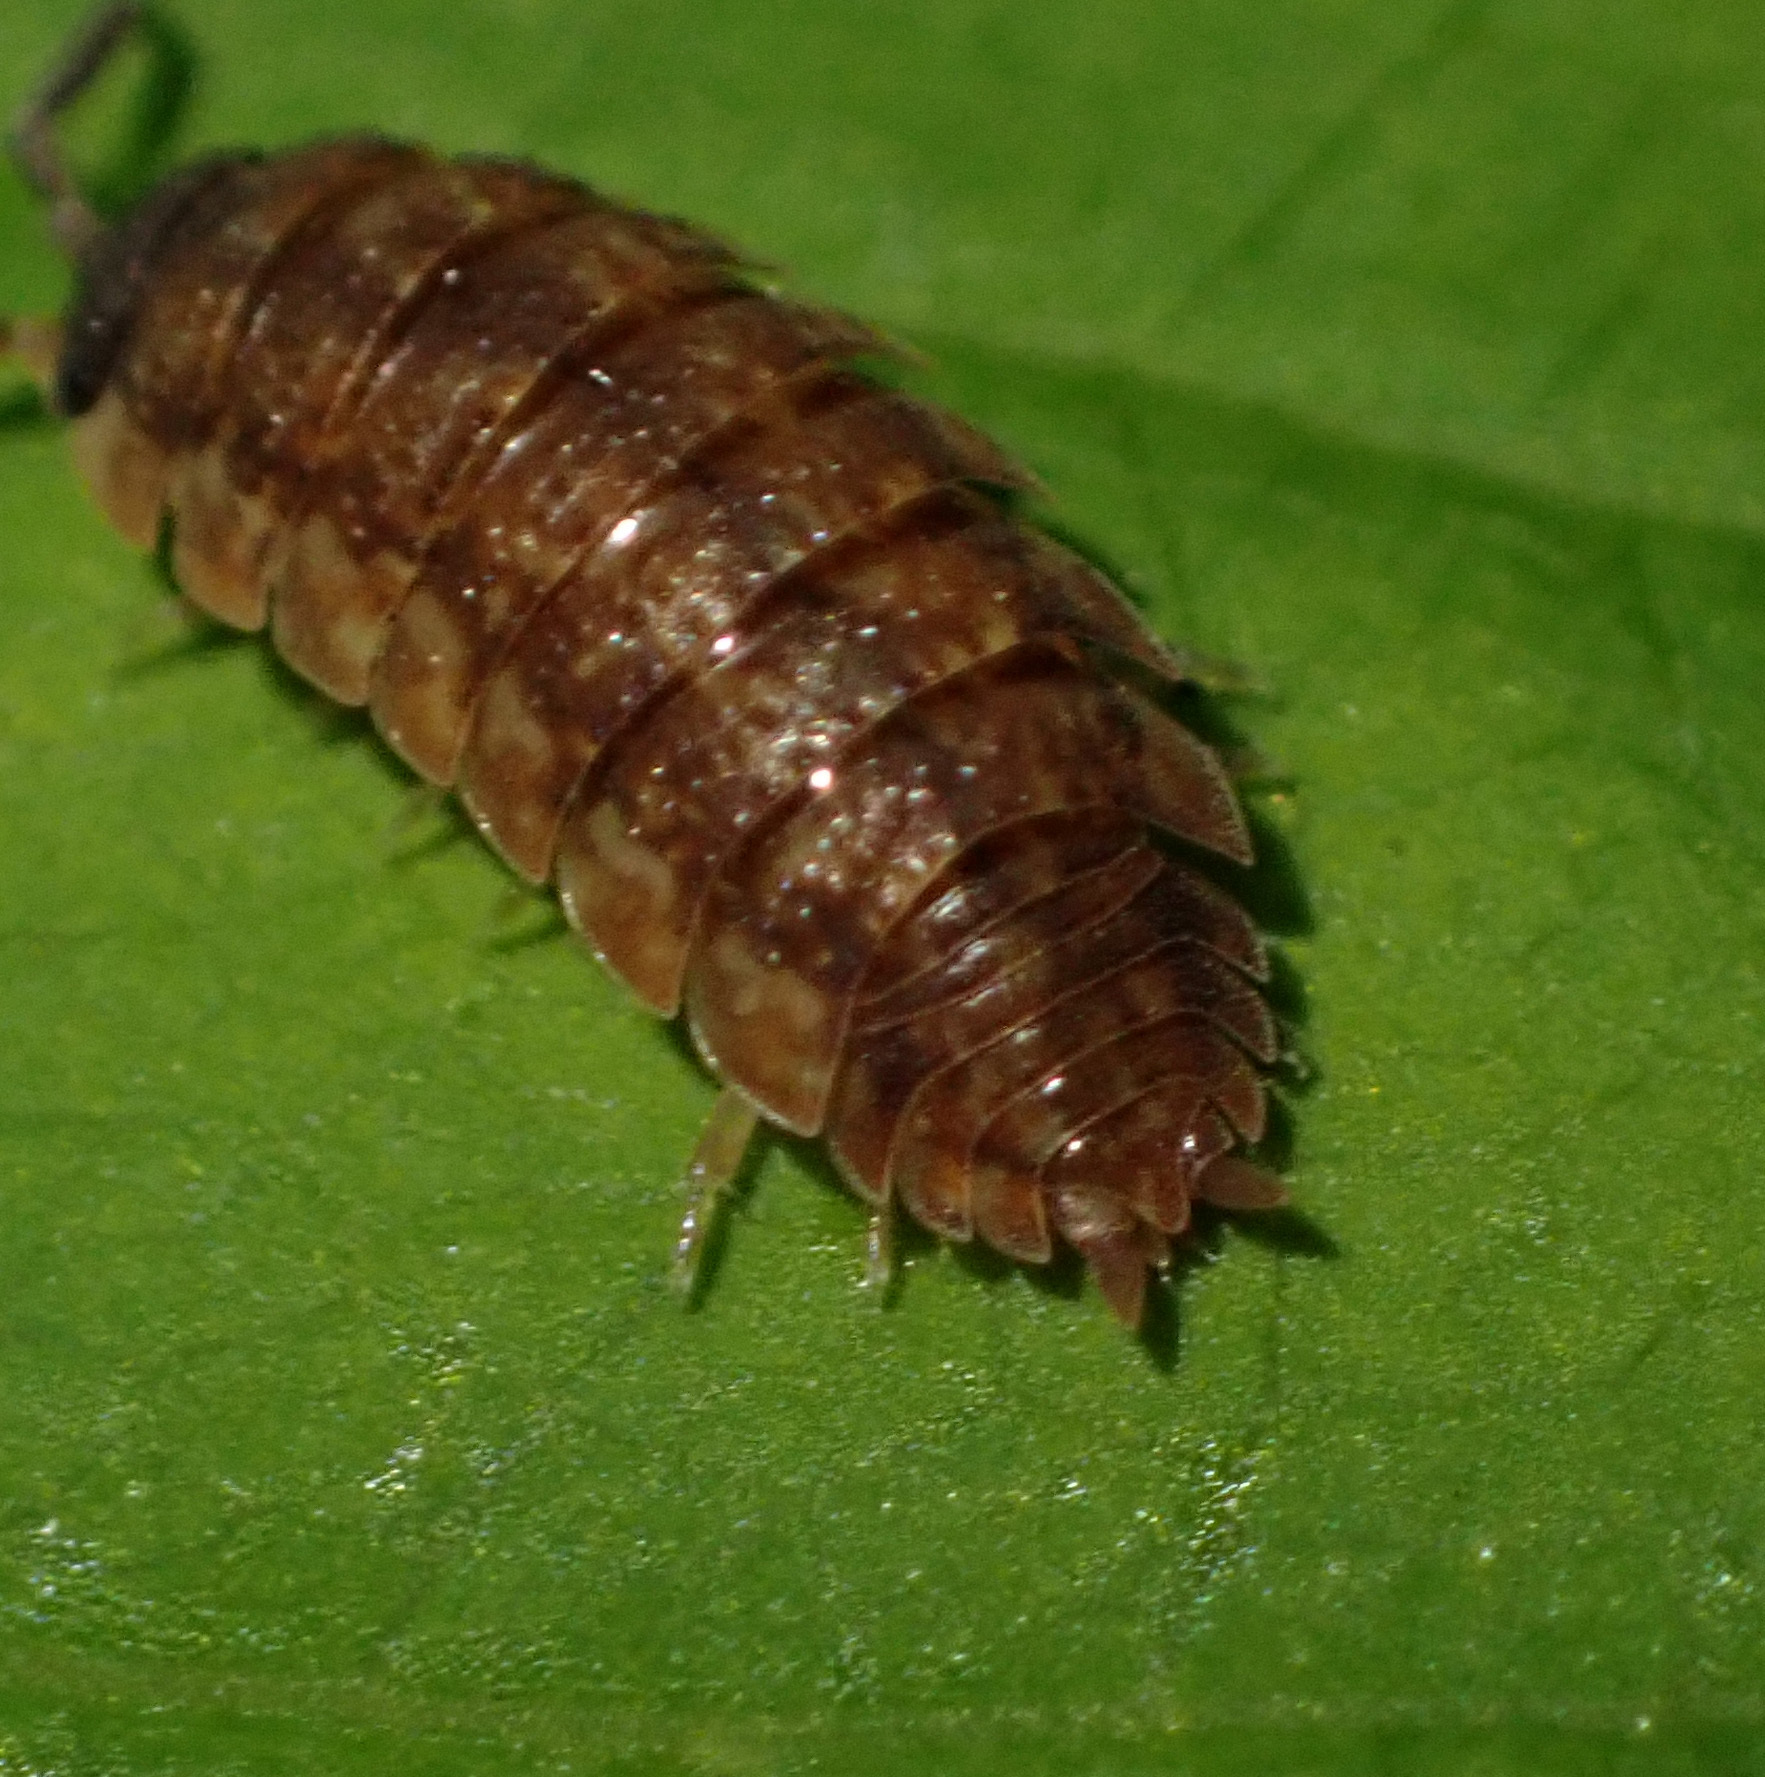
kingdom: Animalia
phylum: Arthropoda
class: Malacostraca
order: Isopoda
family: Porcellionidae
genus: Porcellio
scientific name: Porcellio scaber
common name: Common rough woodlouse
